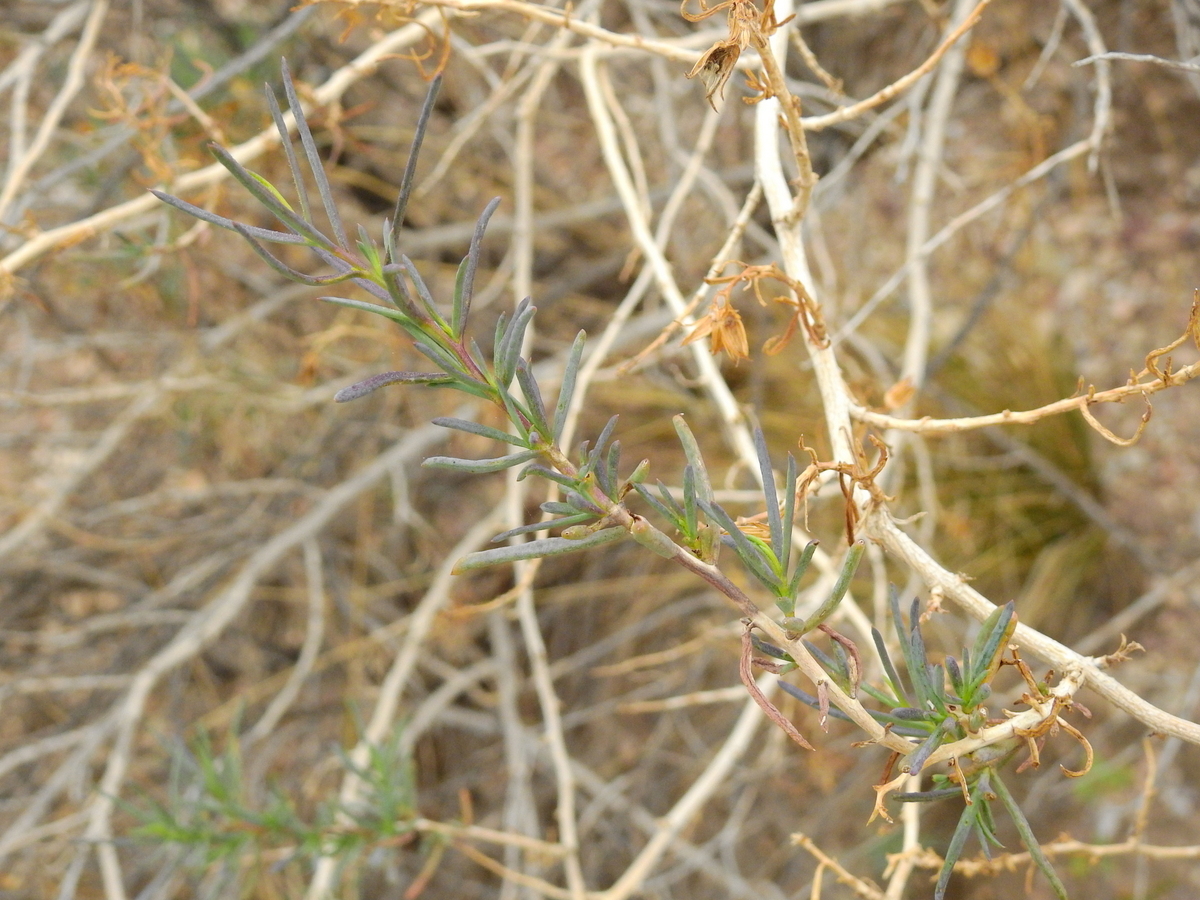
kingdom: Plantae
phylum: Tracheophyta
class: Magnoliopsida
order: Asterales
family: Asteraceae
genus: Senecio
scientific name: Senecio subulatus
